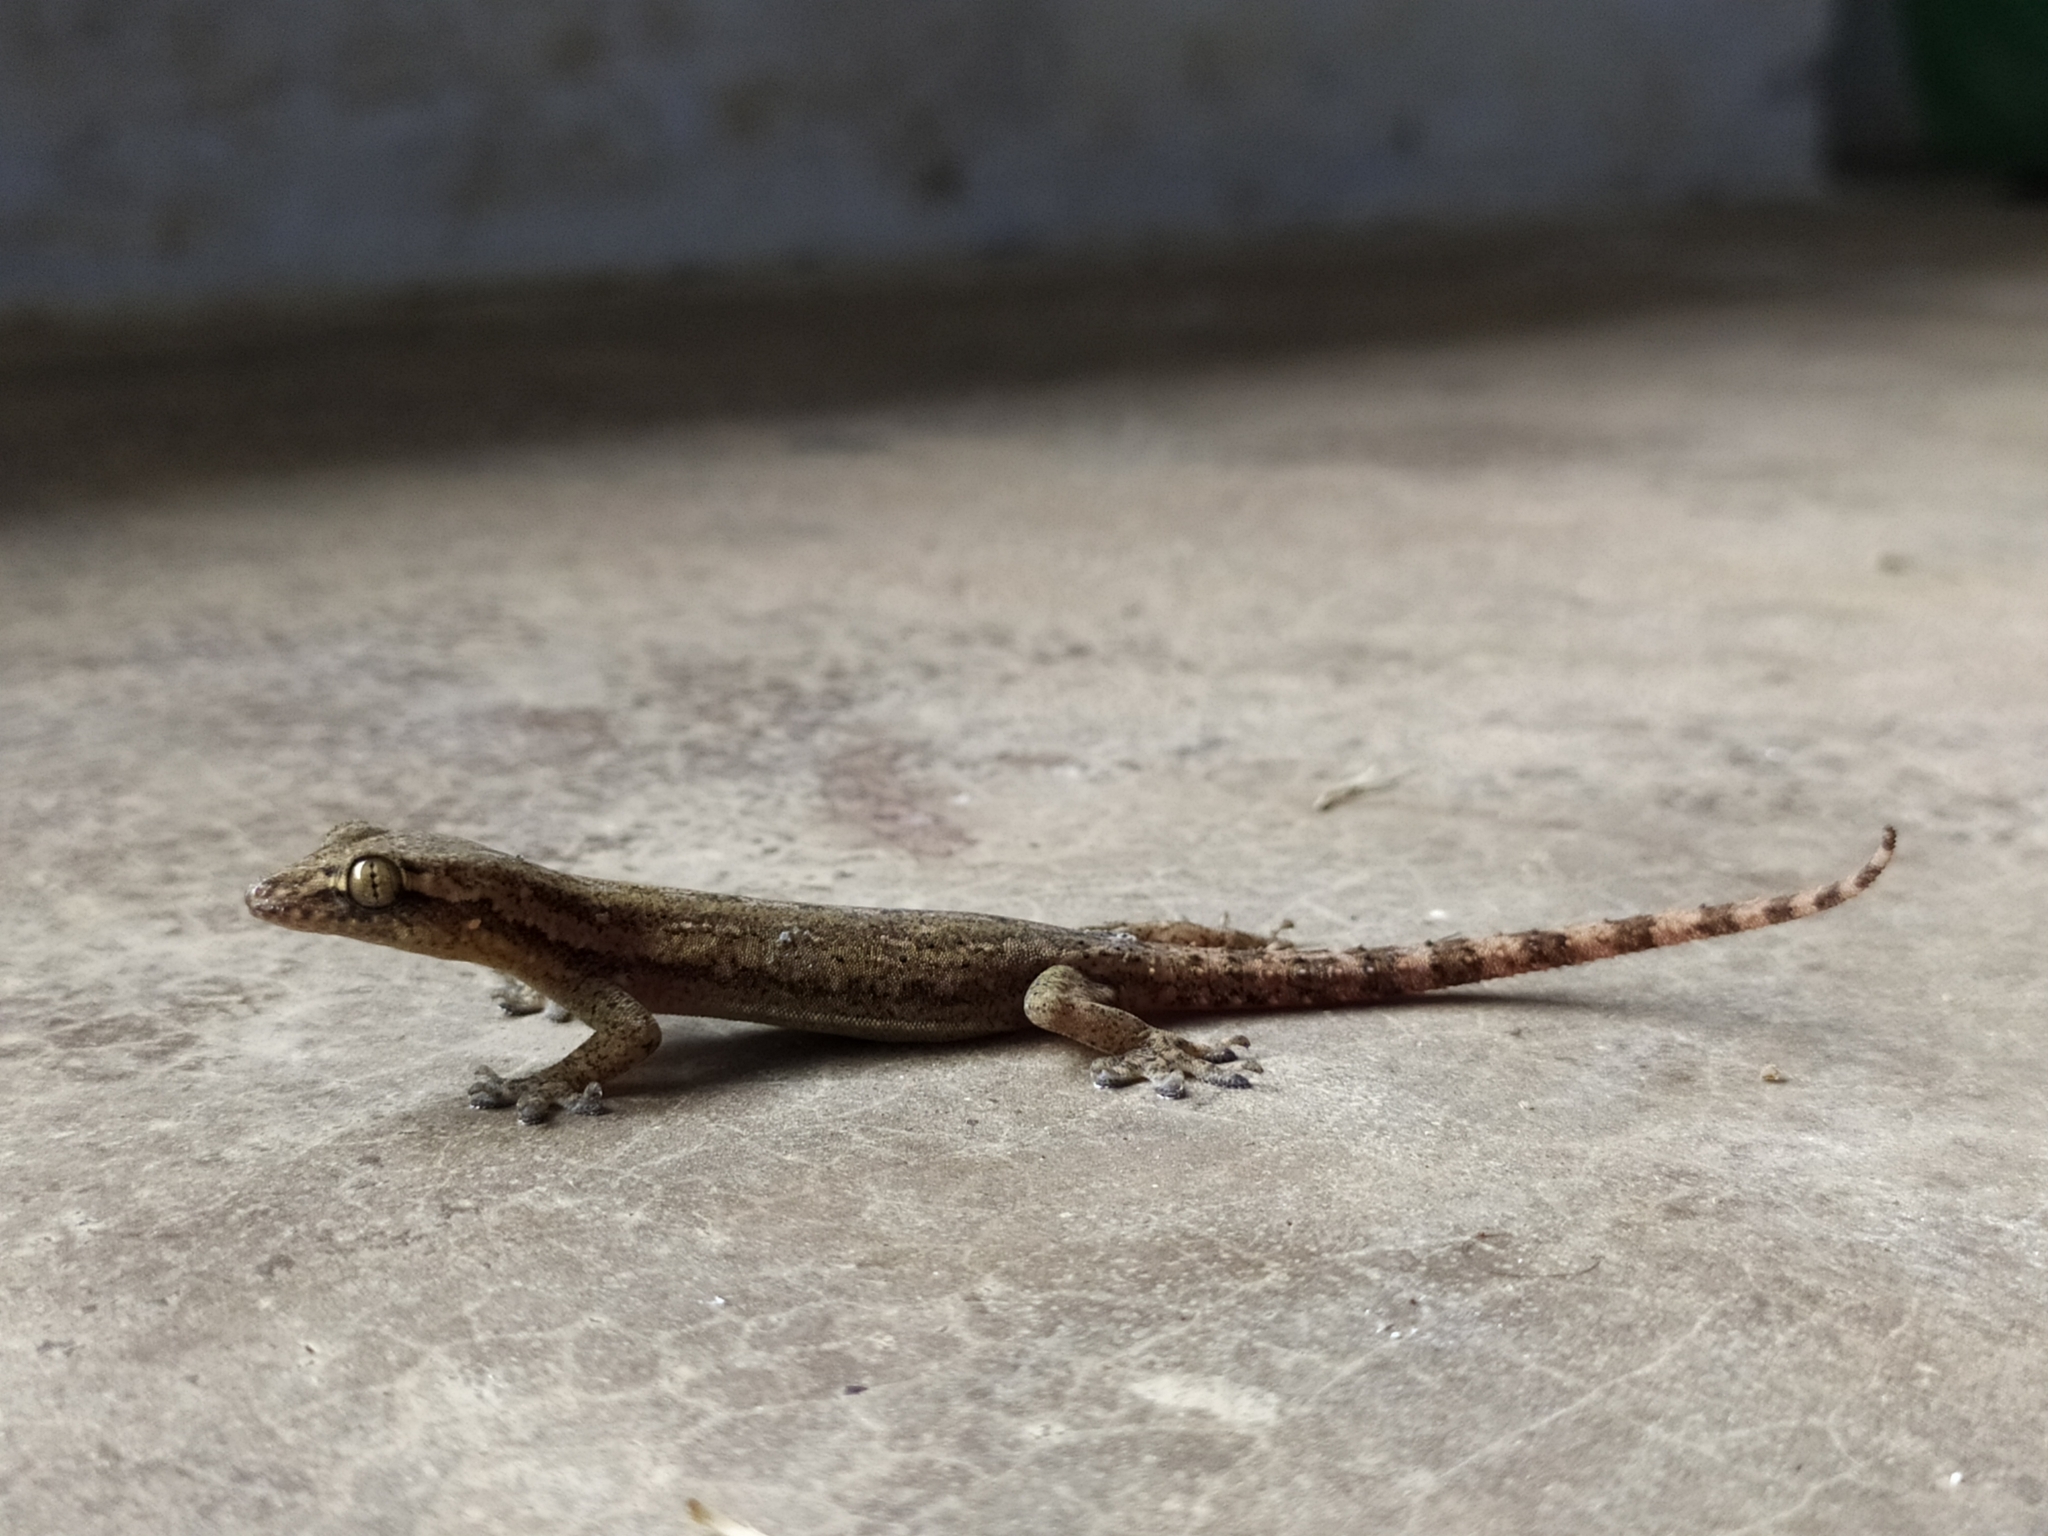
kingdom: Animalia
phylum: Chordata
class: Squamata
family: Gekkonidae
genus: Hemidactylus
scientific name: Hemidactylus frenatus
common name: Common house gecko
